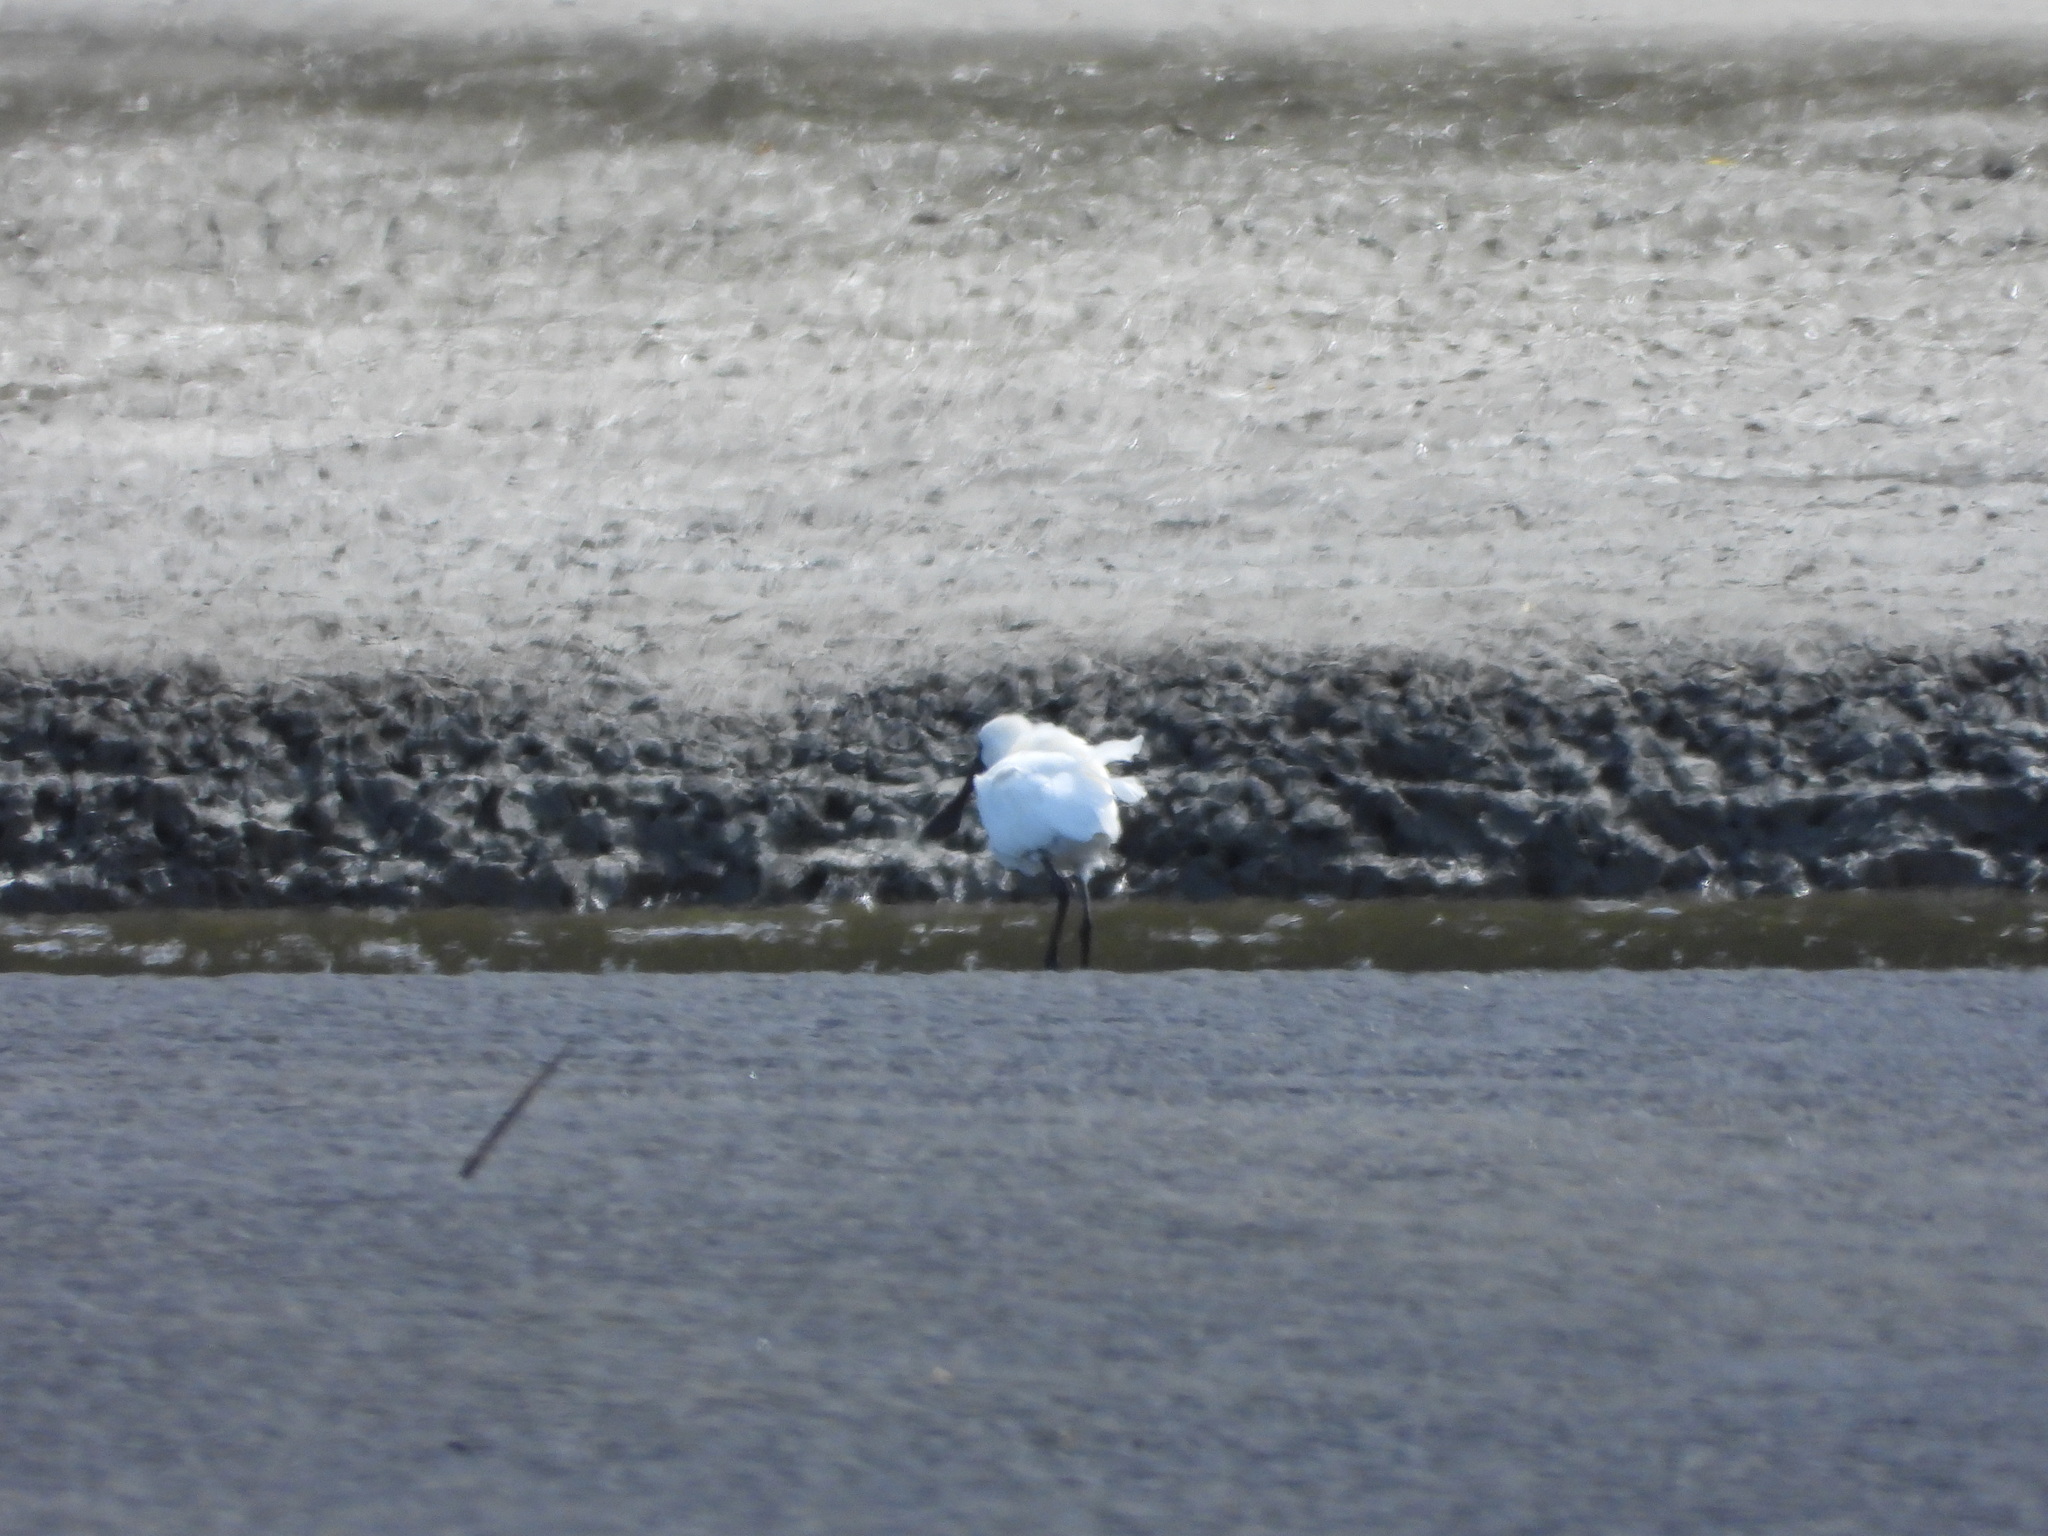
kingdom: Animalia
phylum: Chordata
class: Aves
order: Pelecaniformes
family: Threskiornithidae
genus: Platalea
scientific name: Platalea regia
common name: Royal spoonbill
